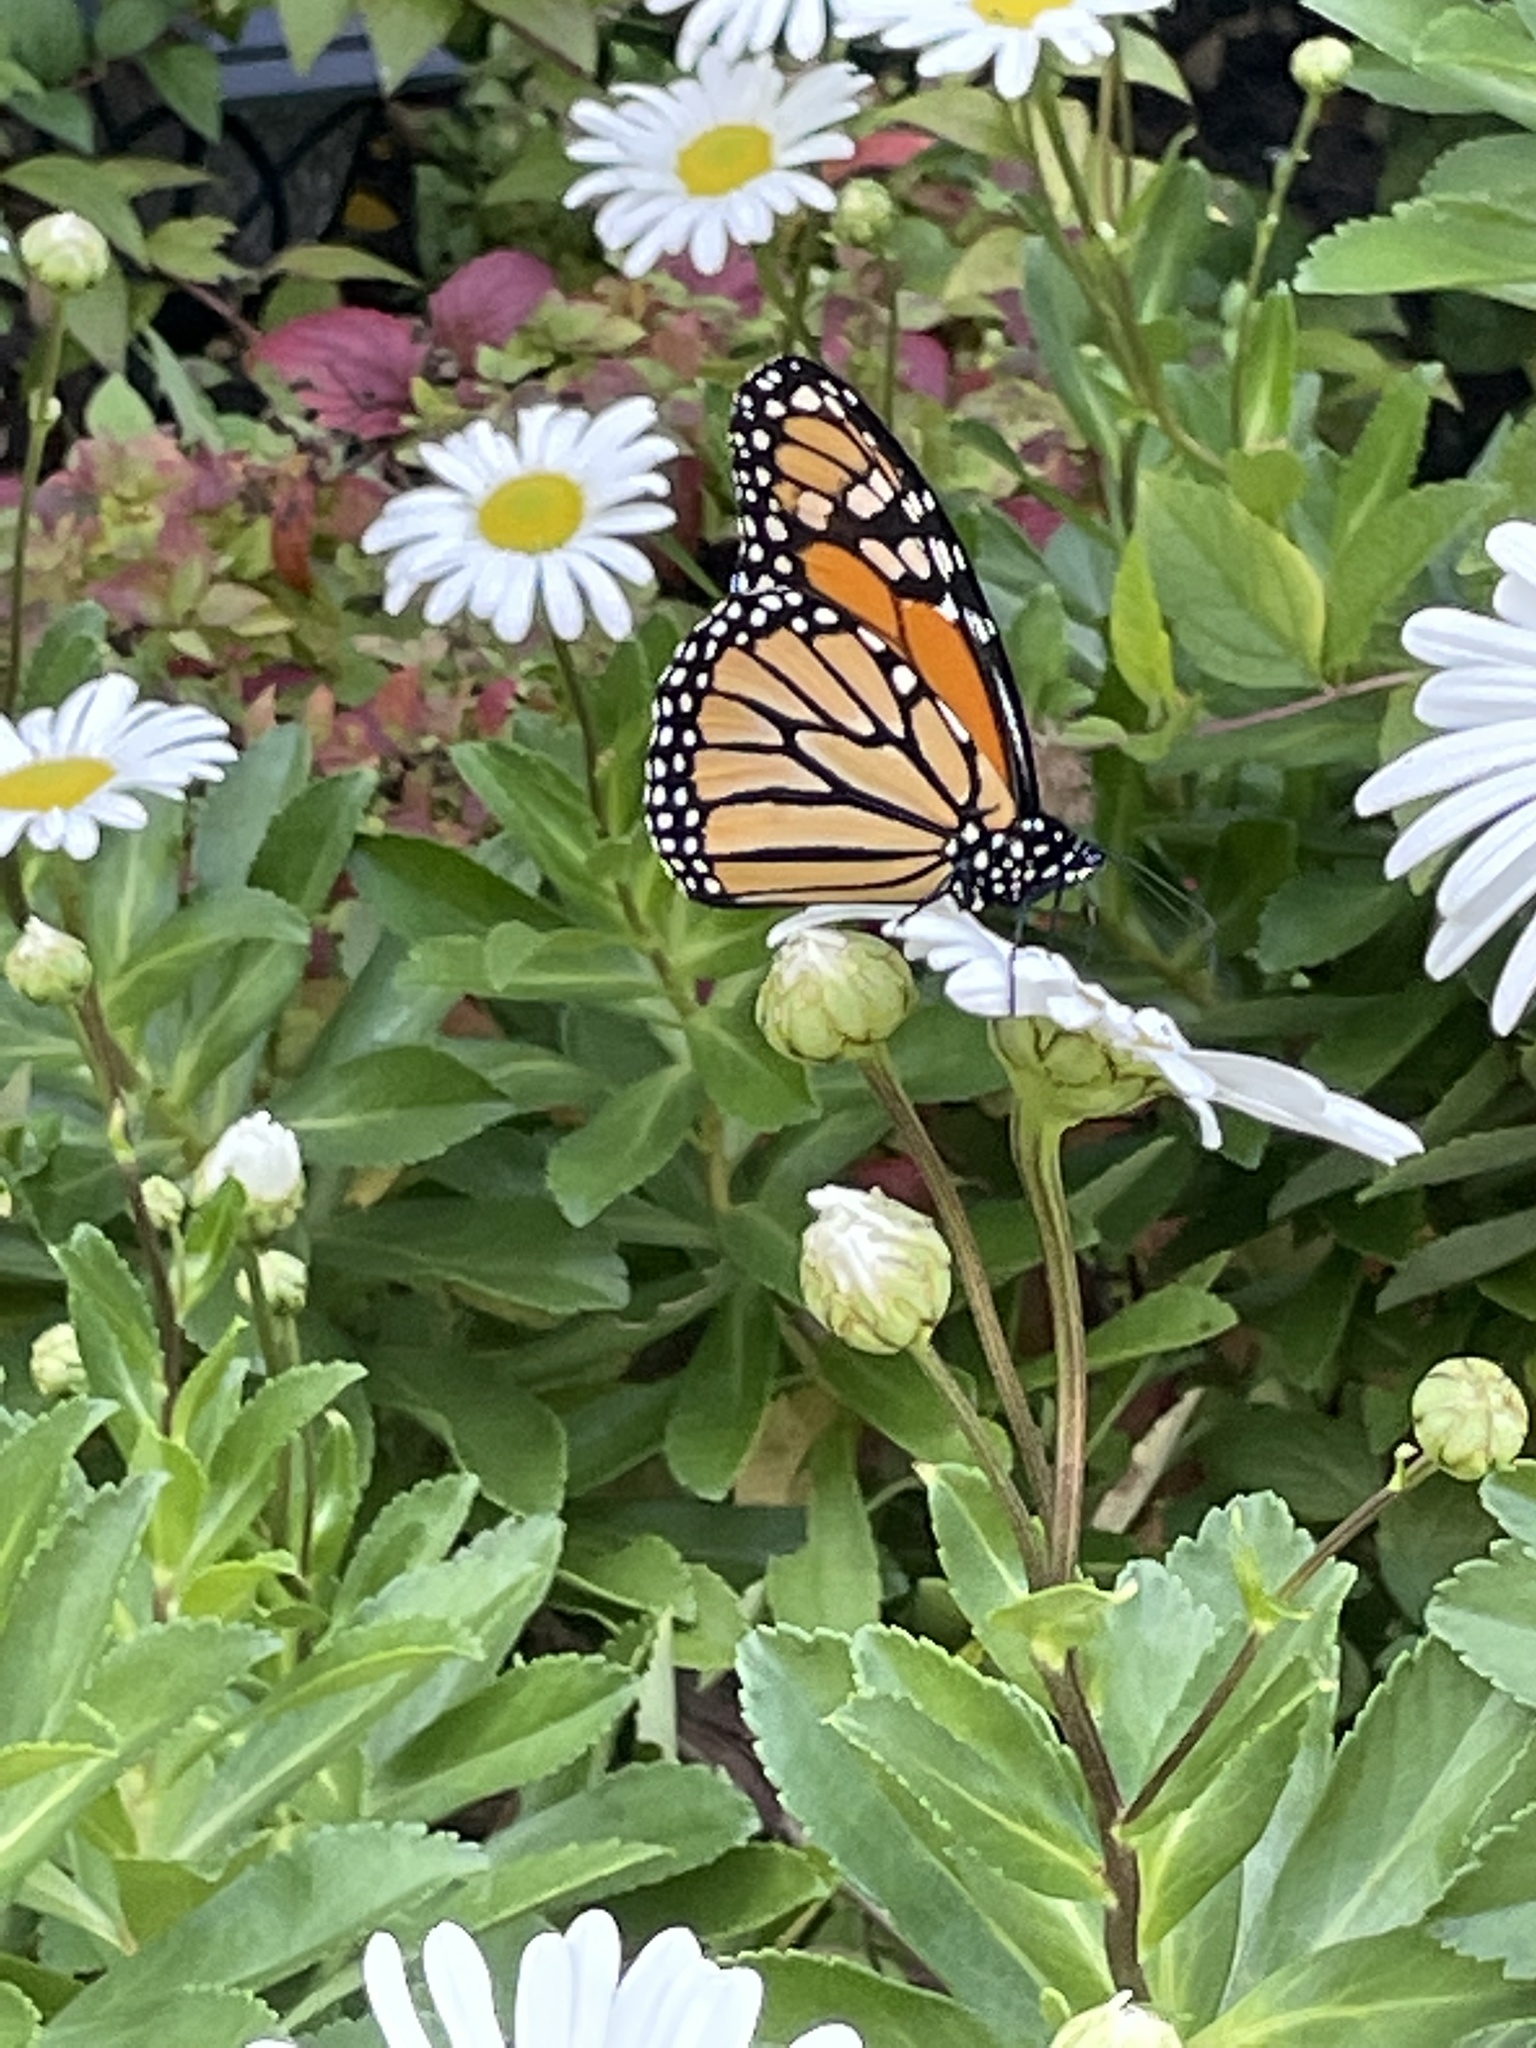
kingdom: Animalia
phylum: Arthropoda
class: Insecta
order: Lepidoptera
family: Nymphalidae
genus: Danaus
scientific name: Danaus plexippus
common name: Monarch
